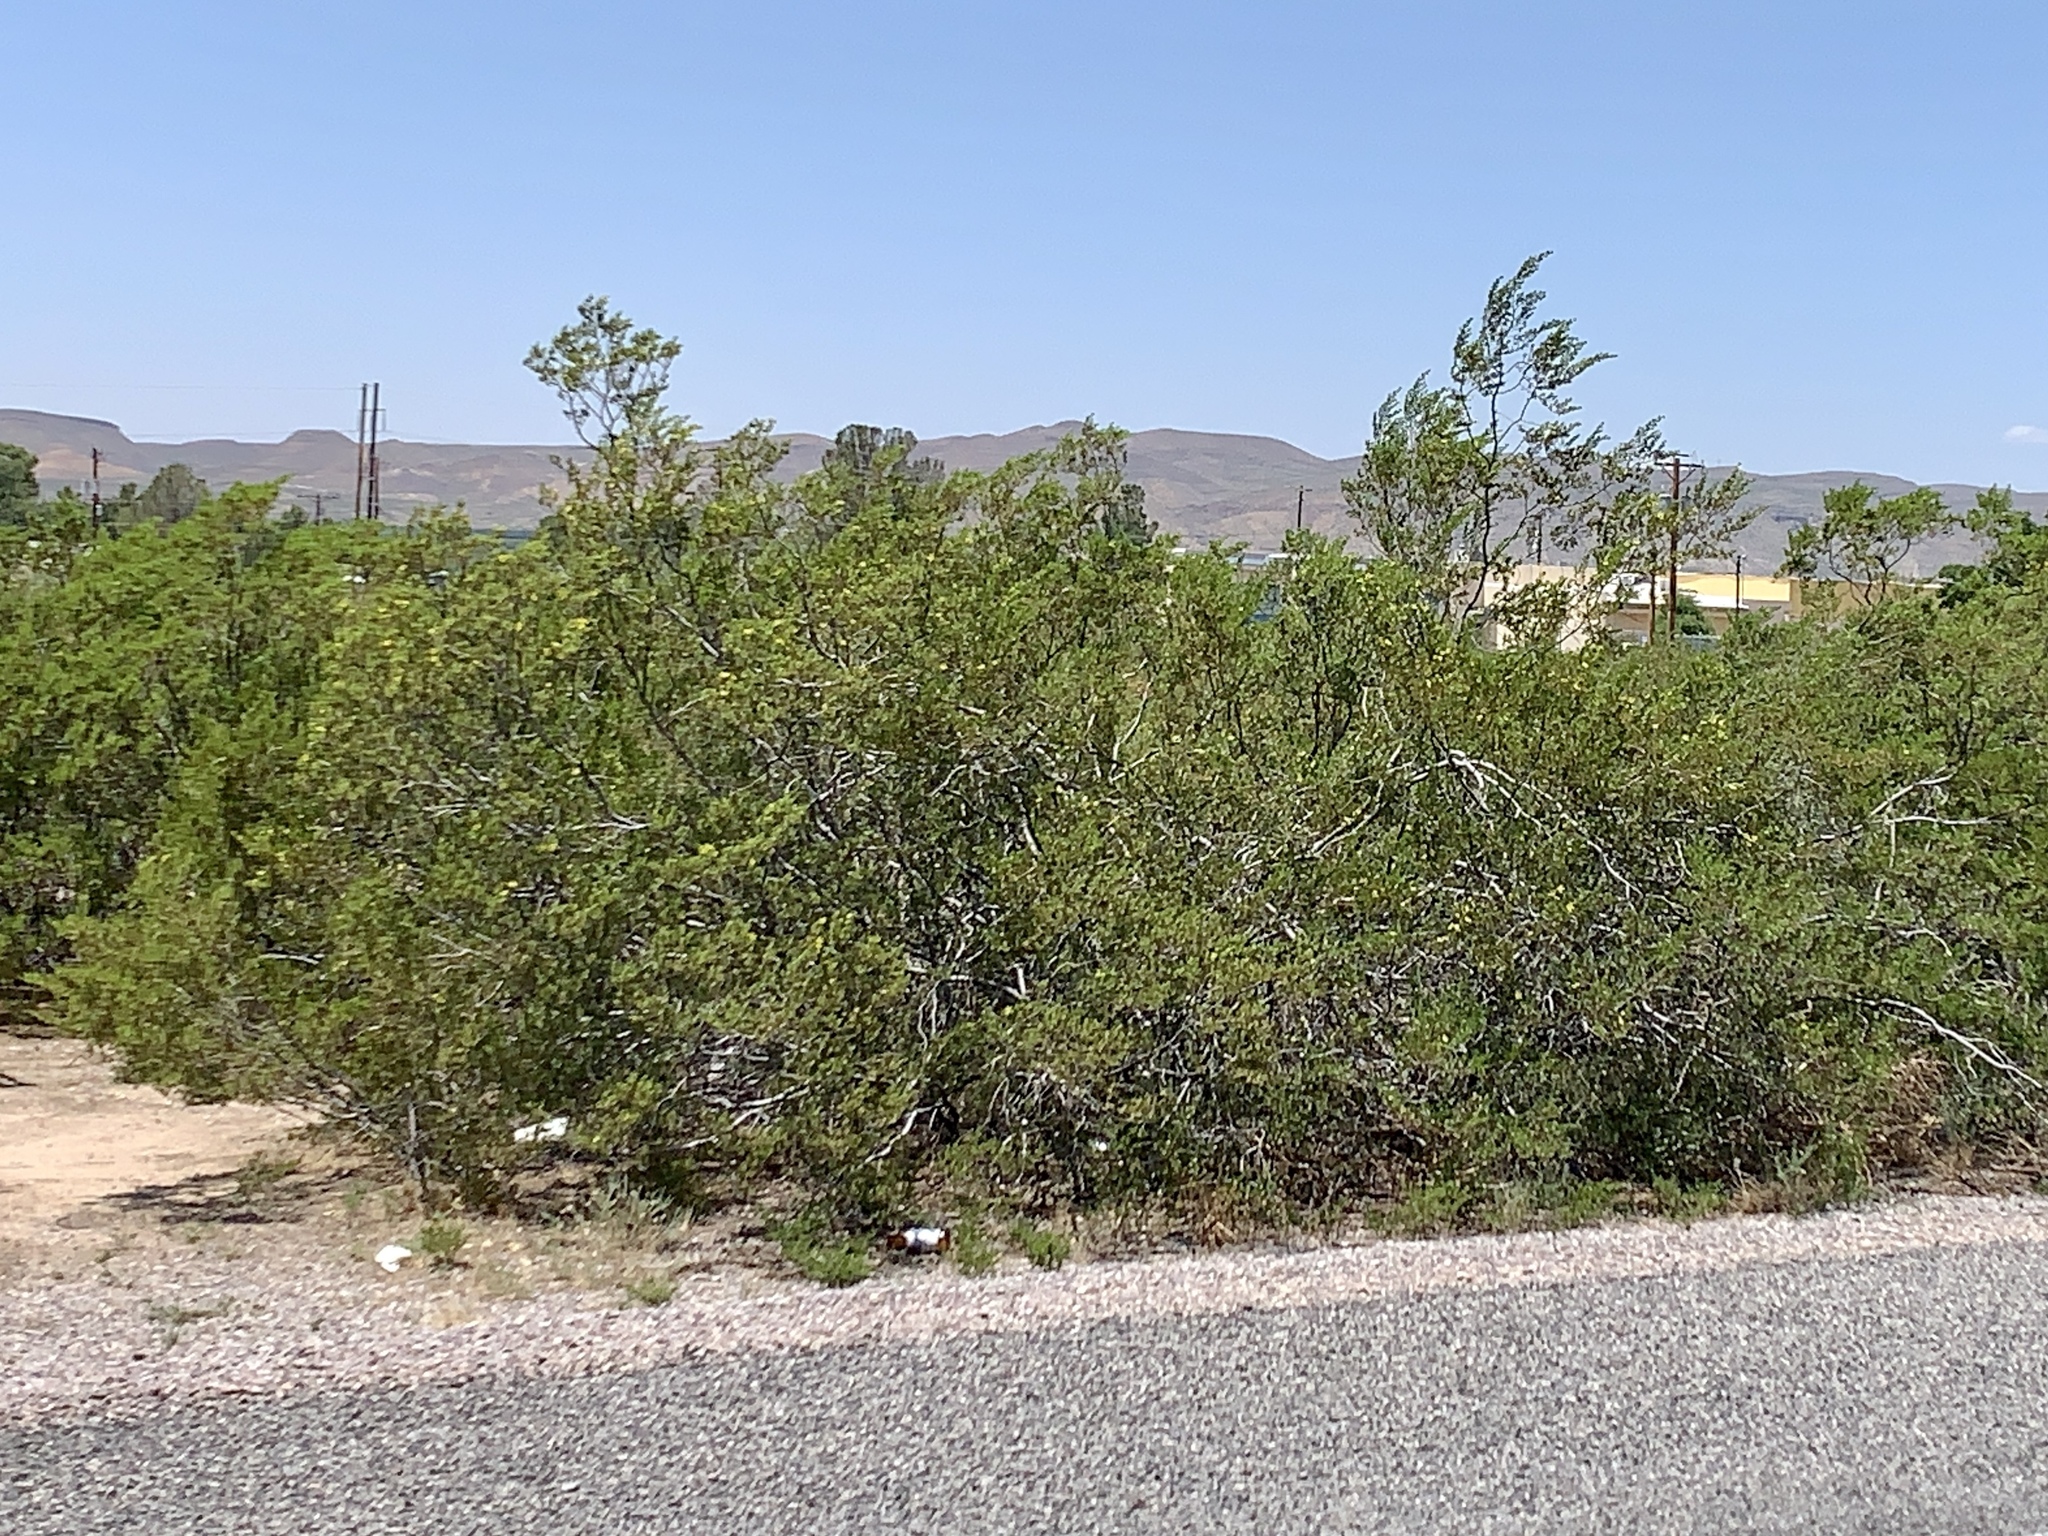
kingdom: Plantae
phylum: Tracheophyta
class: Magnoliopsida
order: Zygophyllales
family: Zygophyllaceae
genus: Larrea
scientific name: Larrea tridentata
